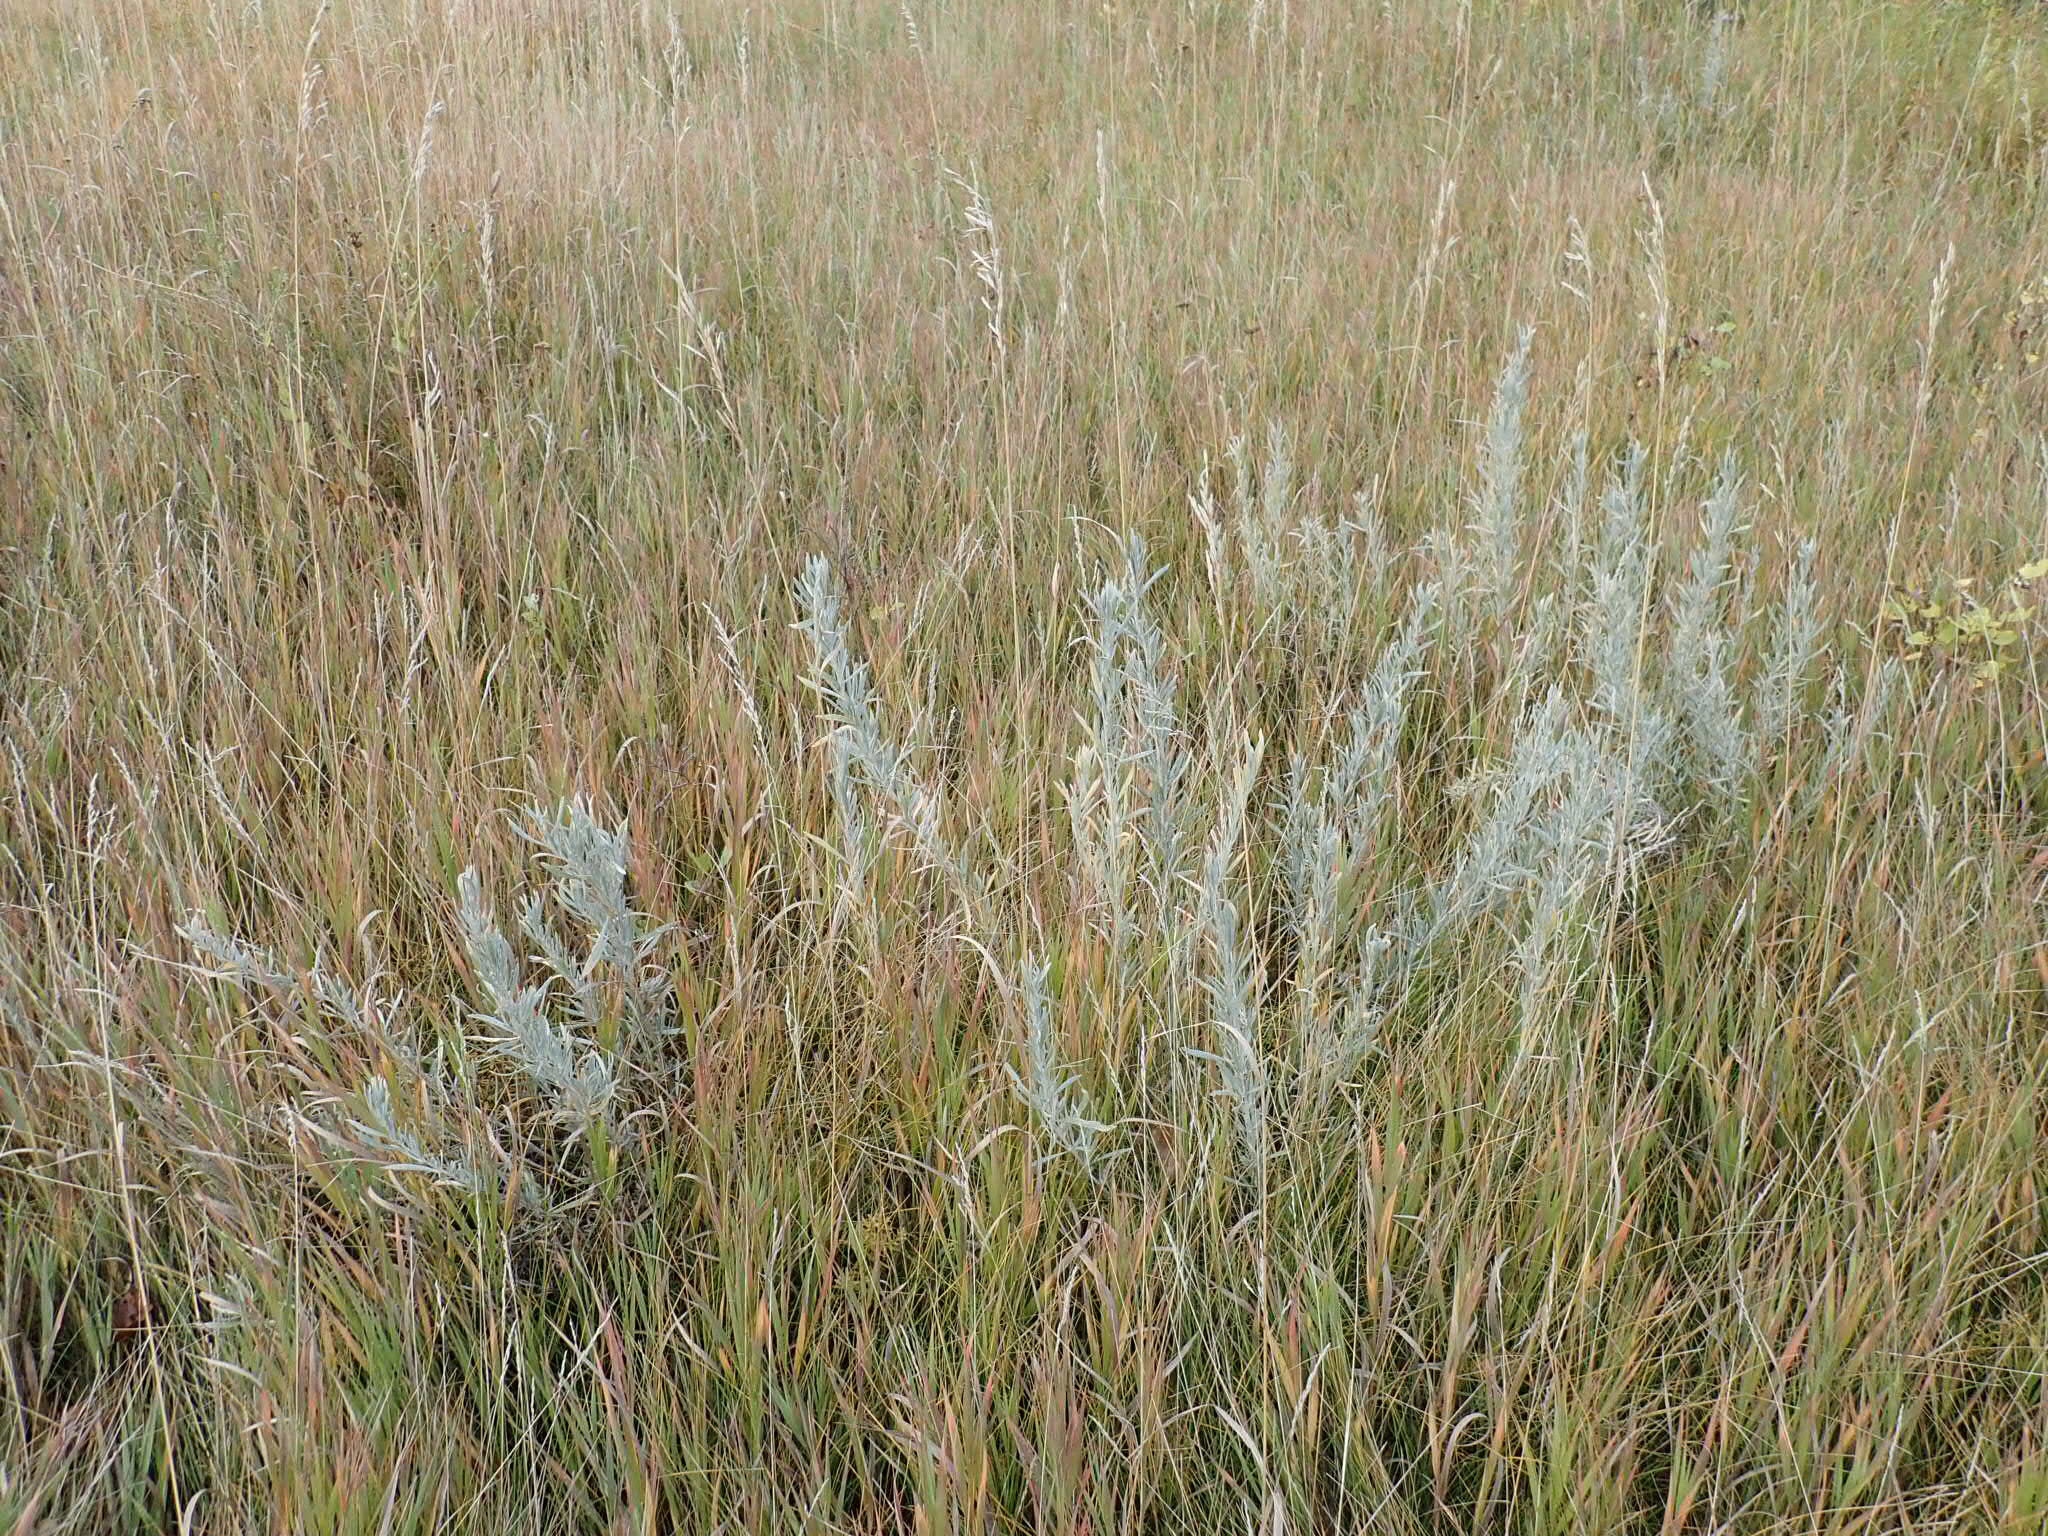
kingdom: Plantae
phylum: Tracheophyta
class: Magnoliopsida
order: Asterales
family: Asteraceae
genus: Artemisia
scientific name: Artemisia cana
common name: Silver sagebrush
